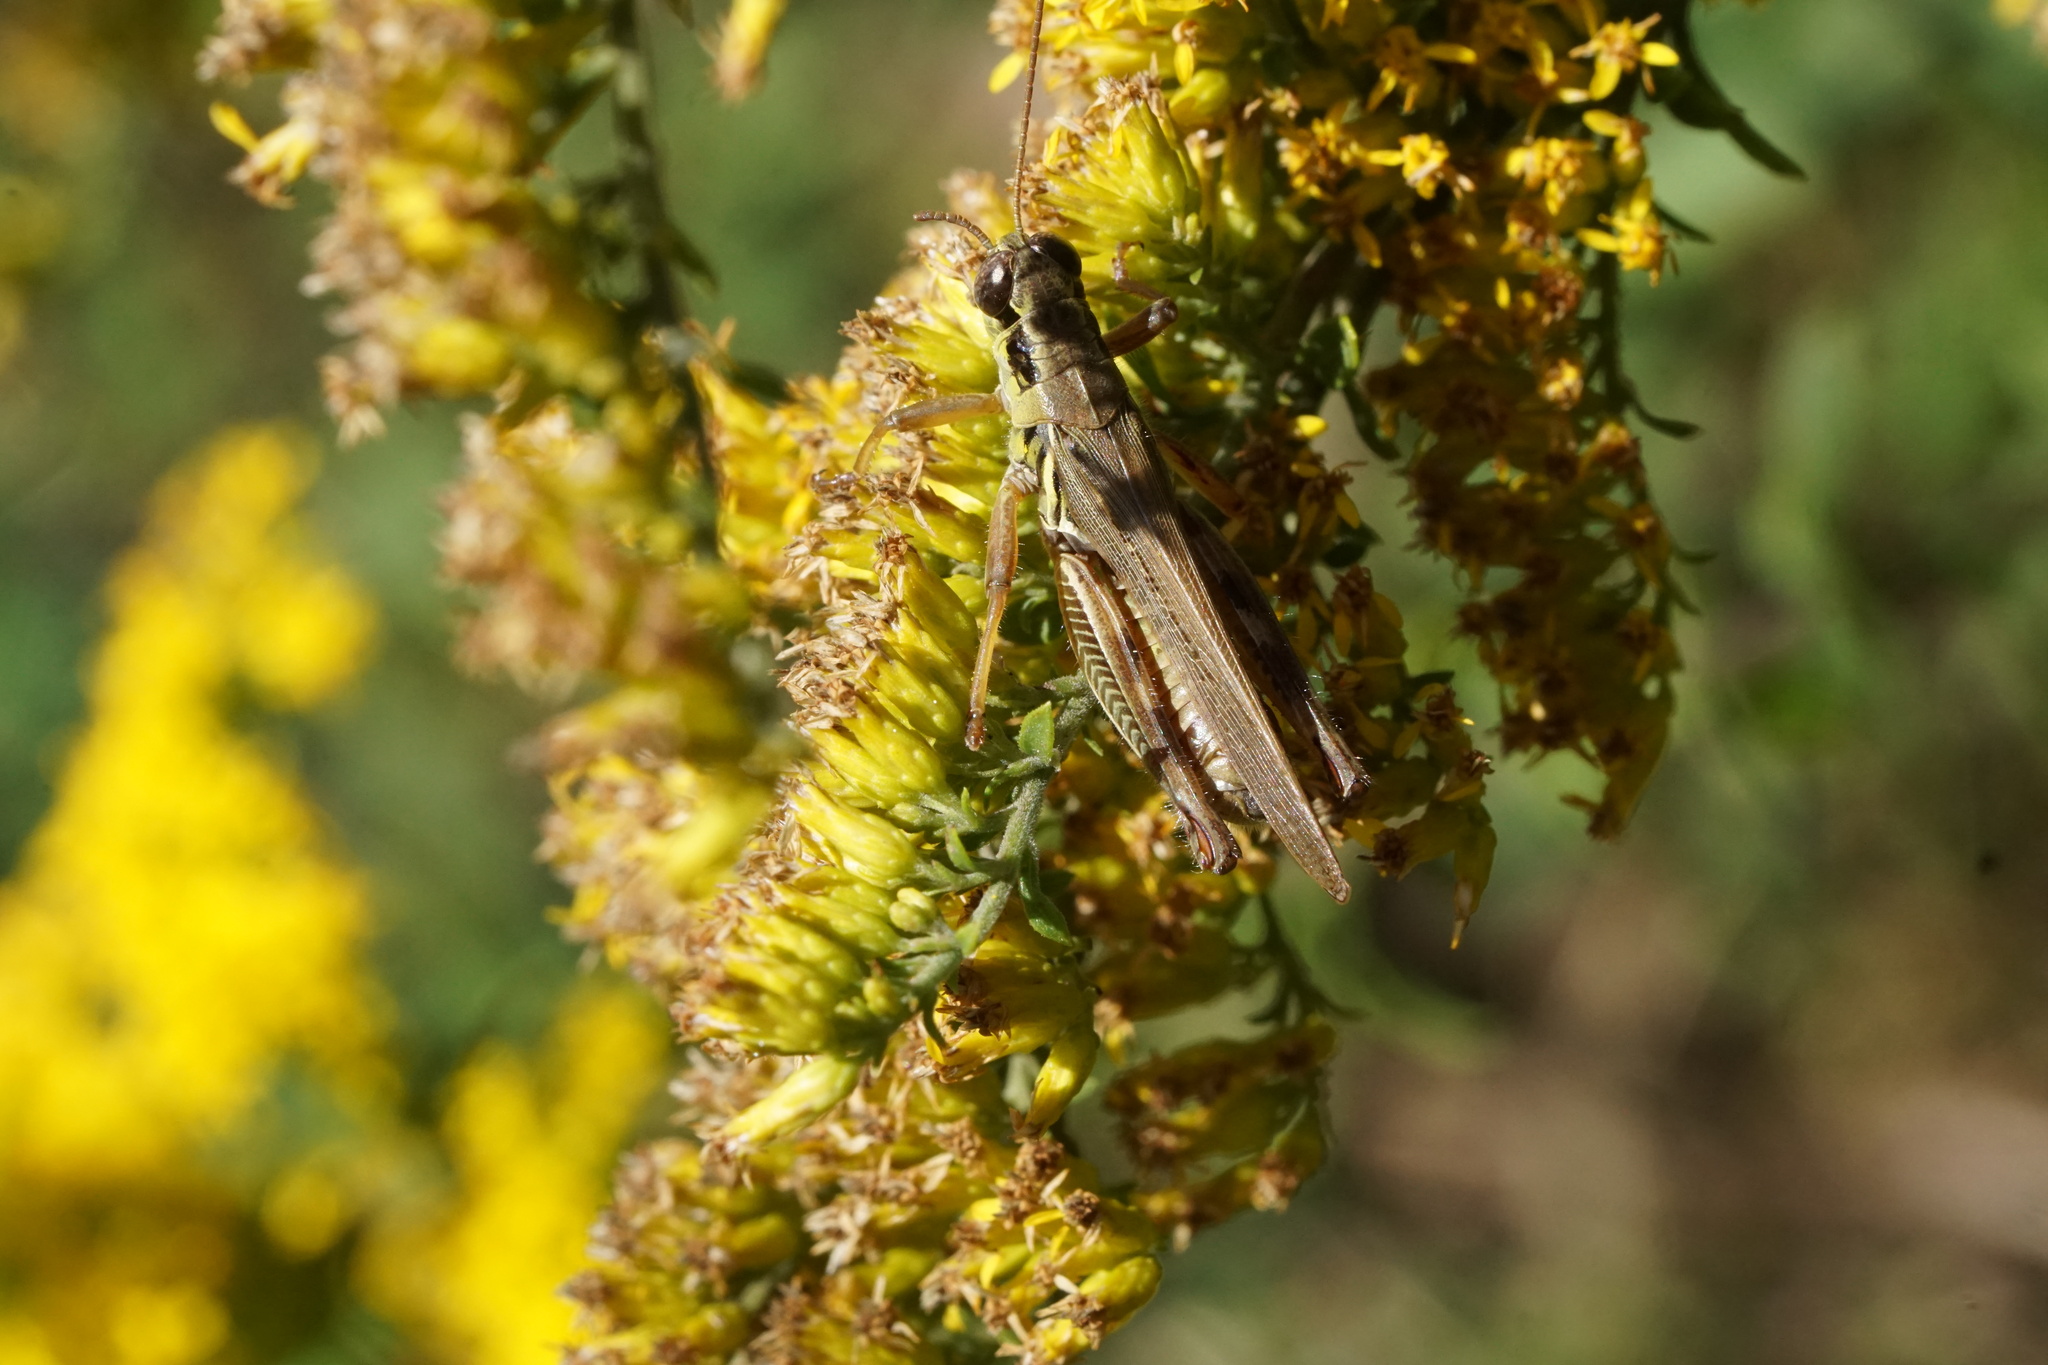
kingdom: Animalia
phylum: Arthropoda
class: Insecta
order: Orthoptera
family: Acrididae
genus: Melanoplus
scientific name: Melanoplus femurrubrum
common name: Red-legged grasshopper
